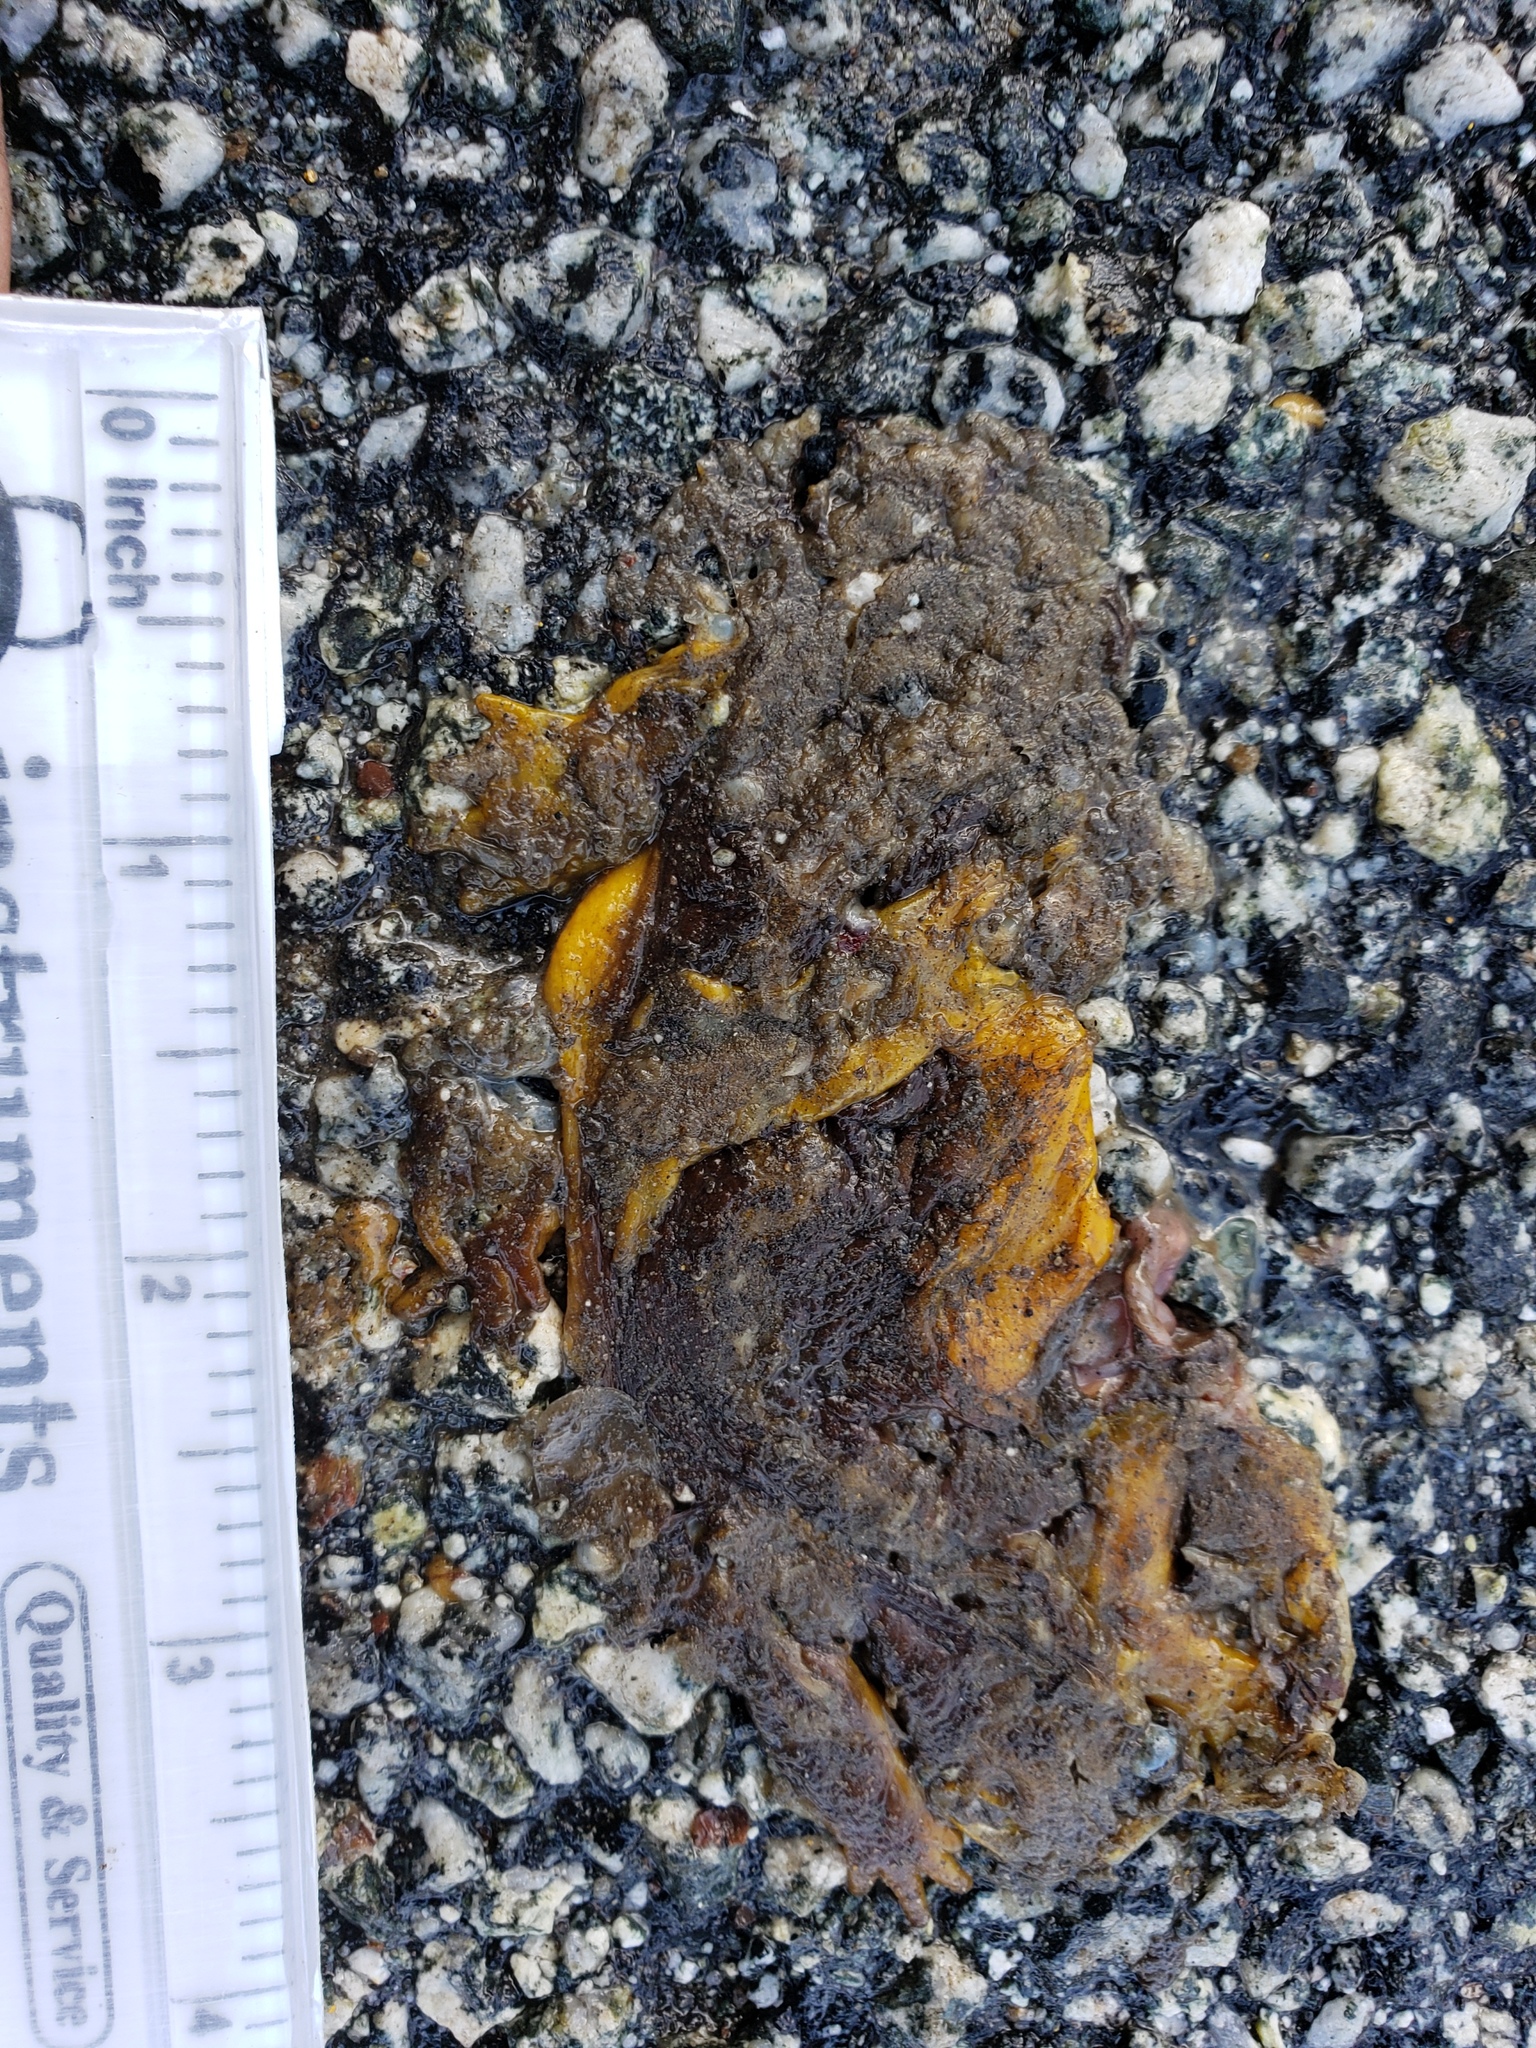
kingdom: Animalia
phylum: Chordata
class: Amphibia
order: Caudata
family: Salamandridae
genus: Taricha
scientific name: Taricha
